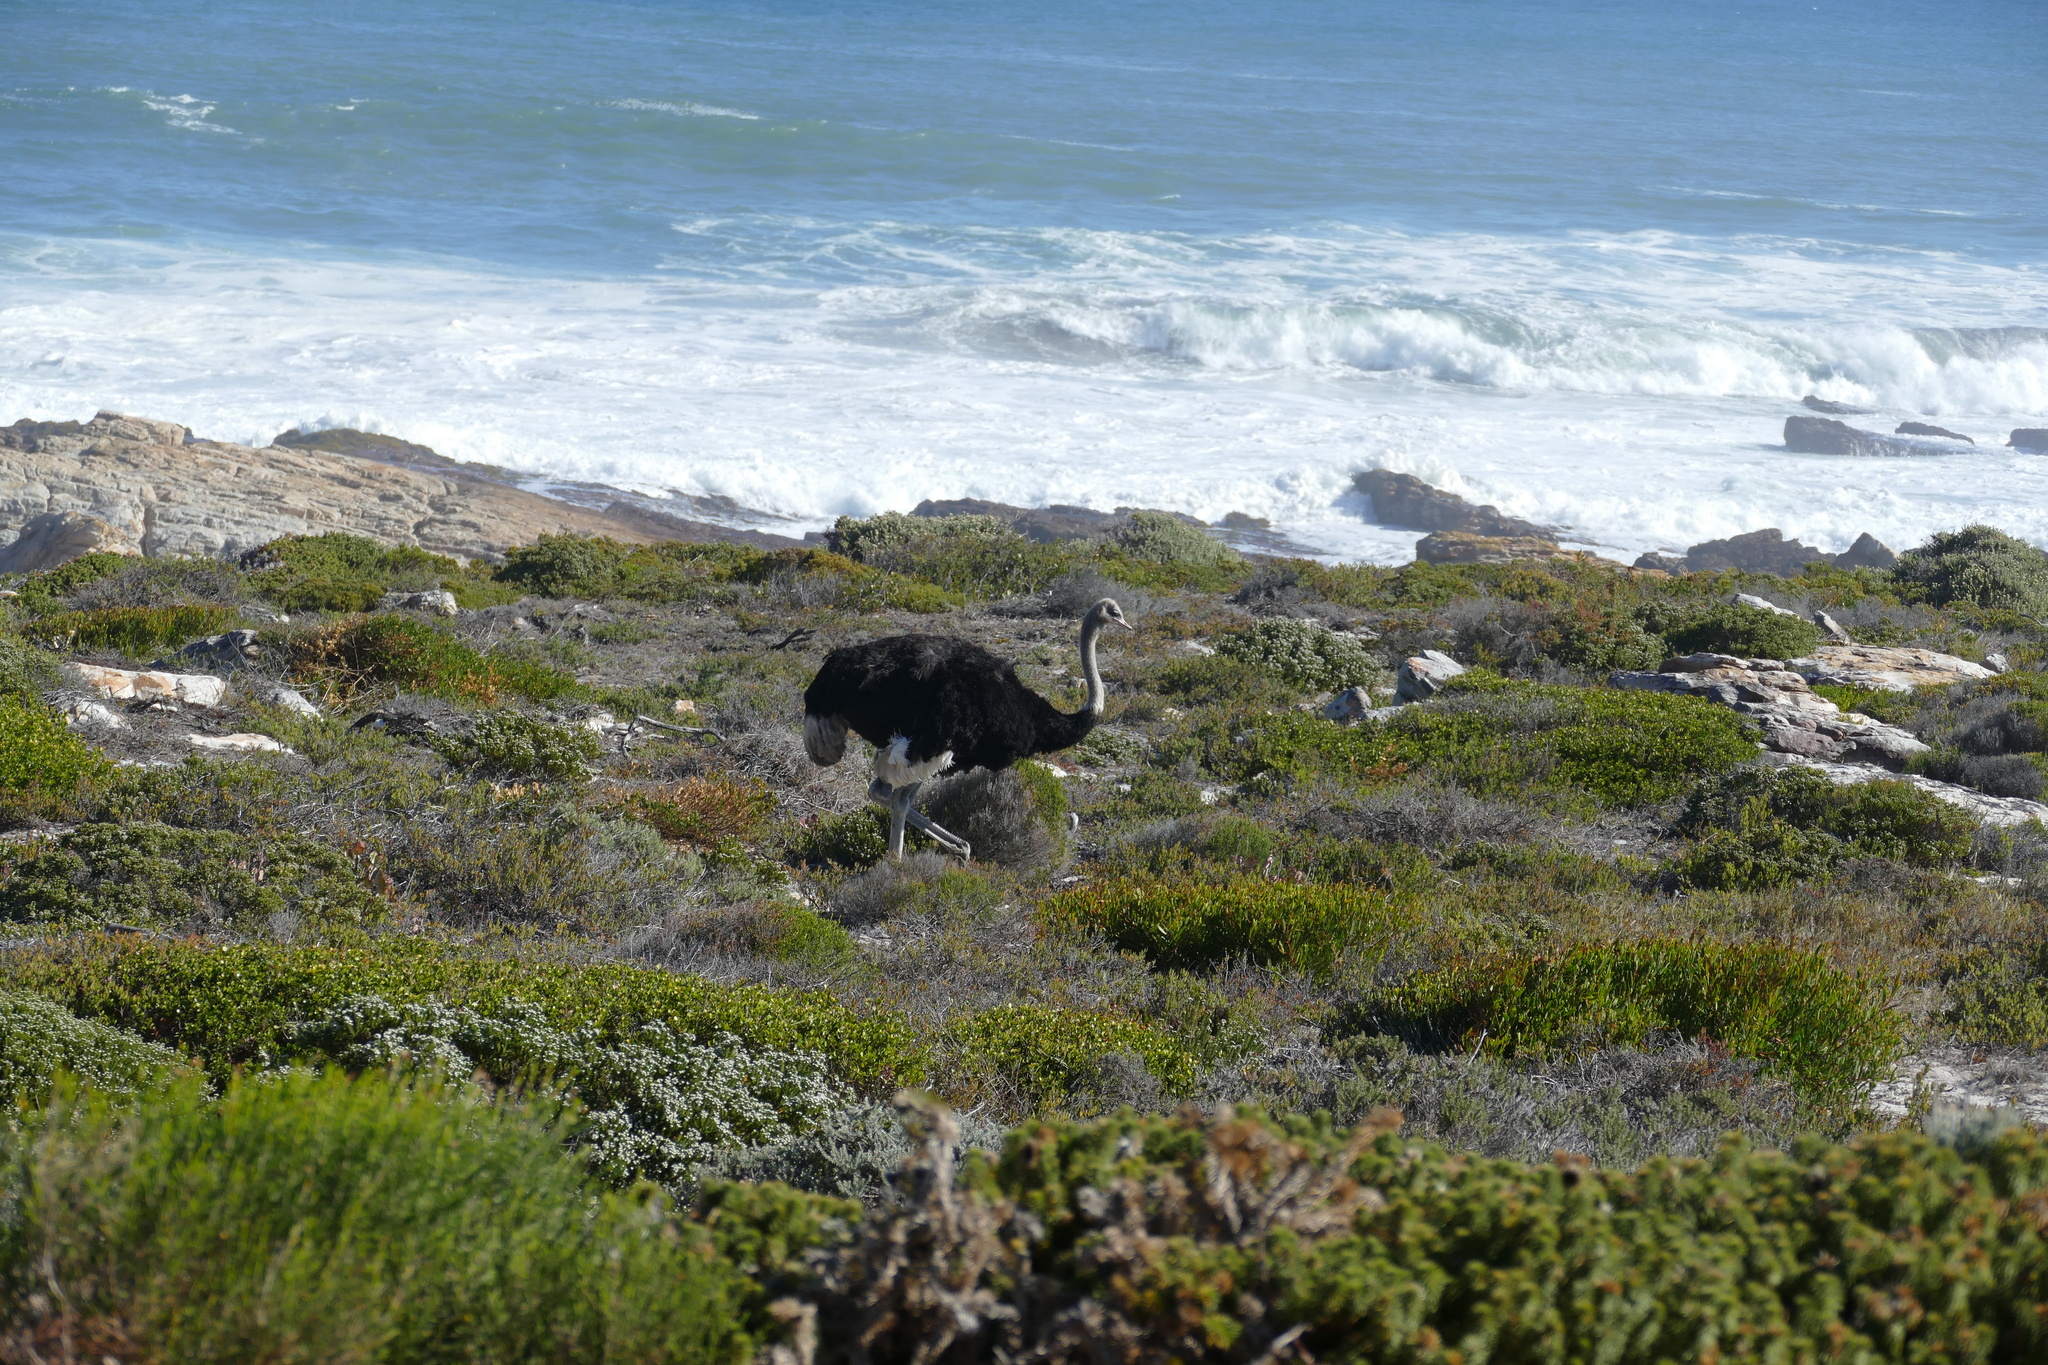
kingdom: Animalia
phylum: Chordata
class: Aves
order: Struthioniformes
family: Struthionidae
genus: Struthio
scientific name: Struthio camelus
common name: Common ostrich
